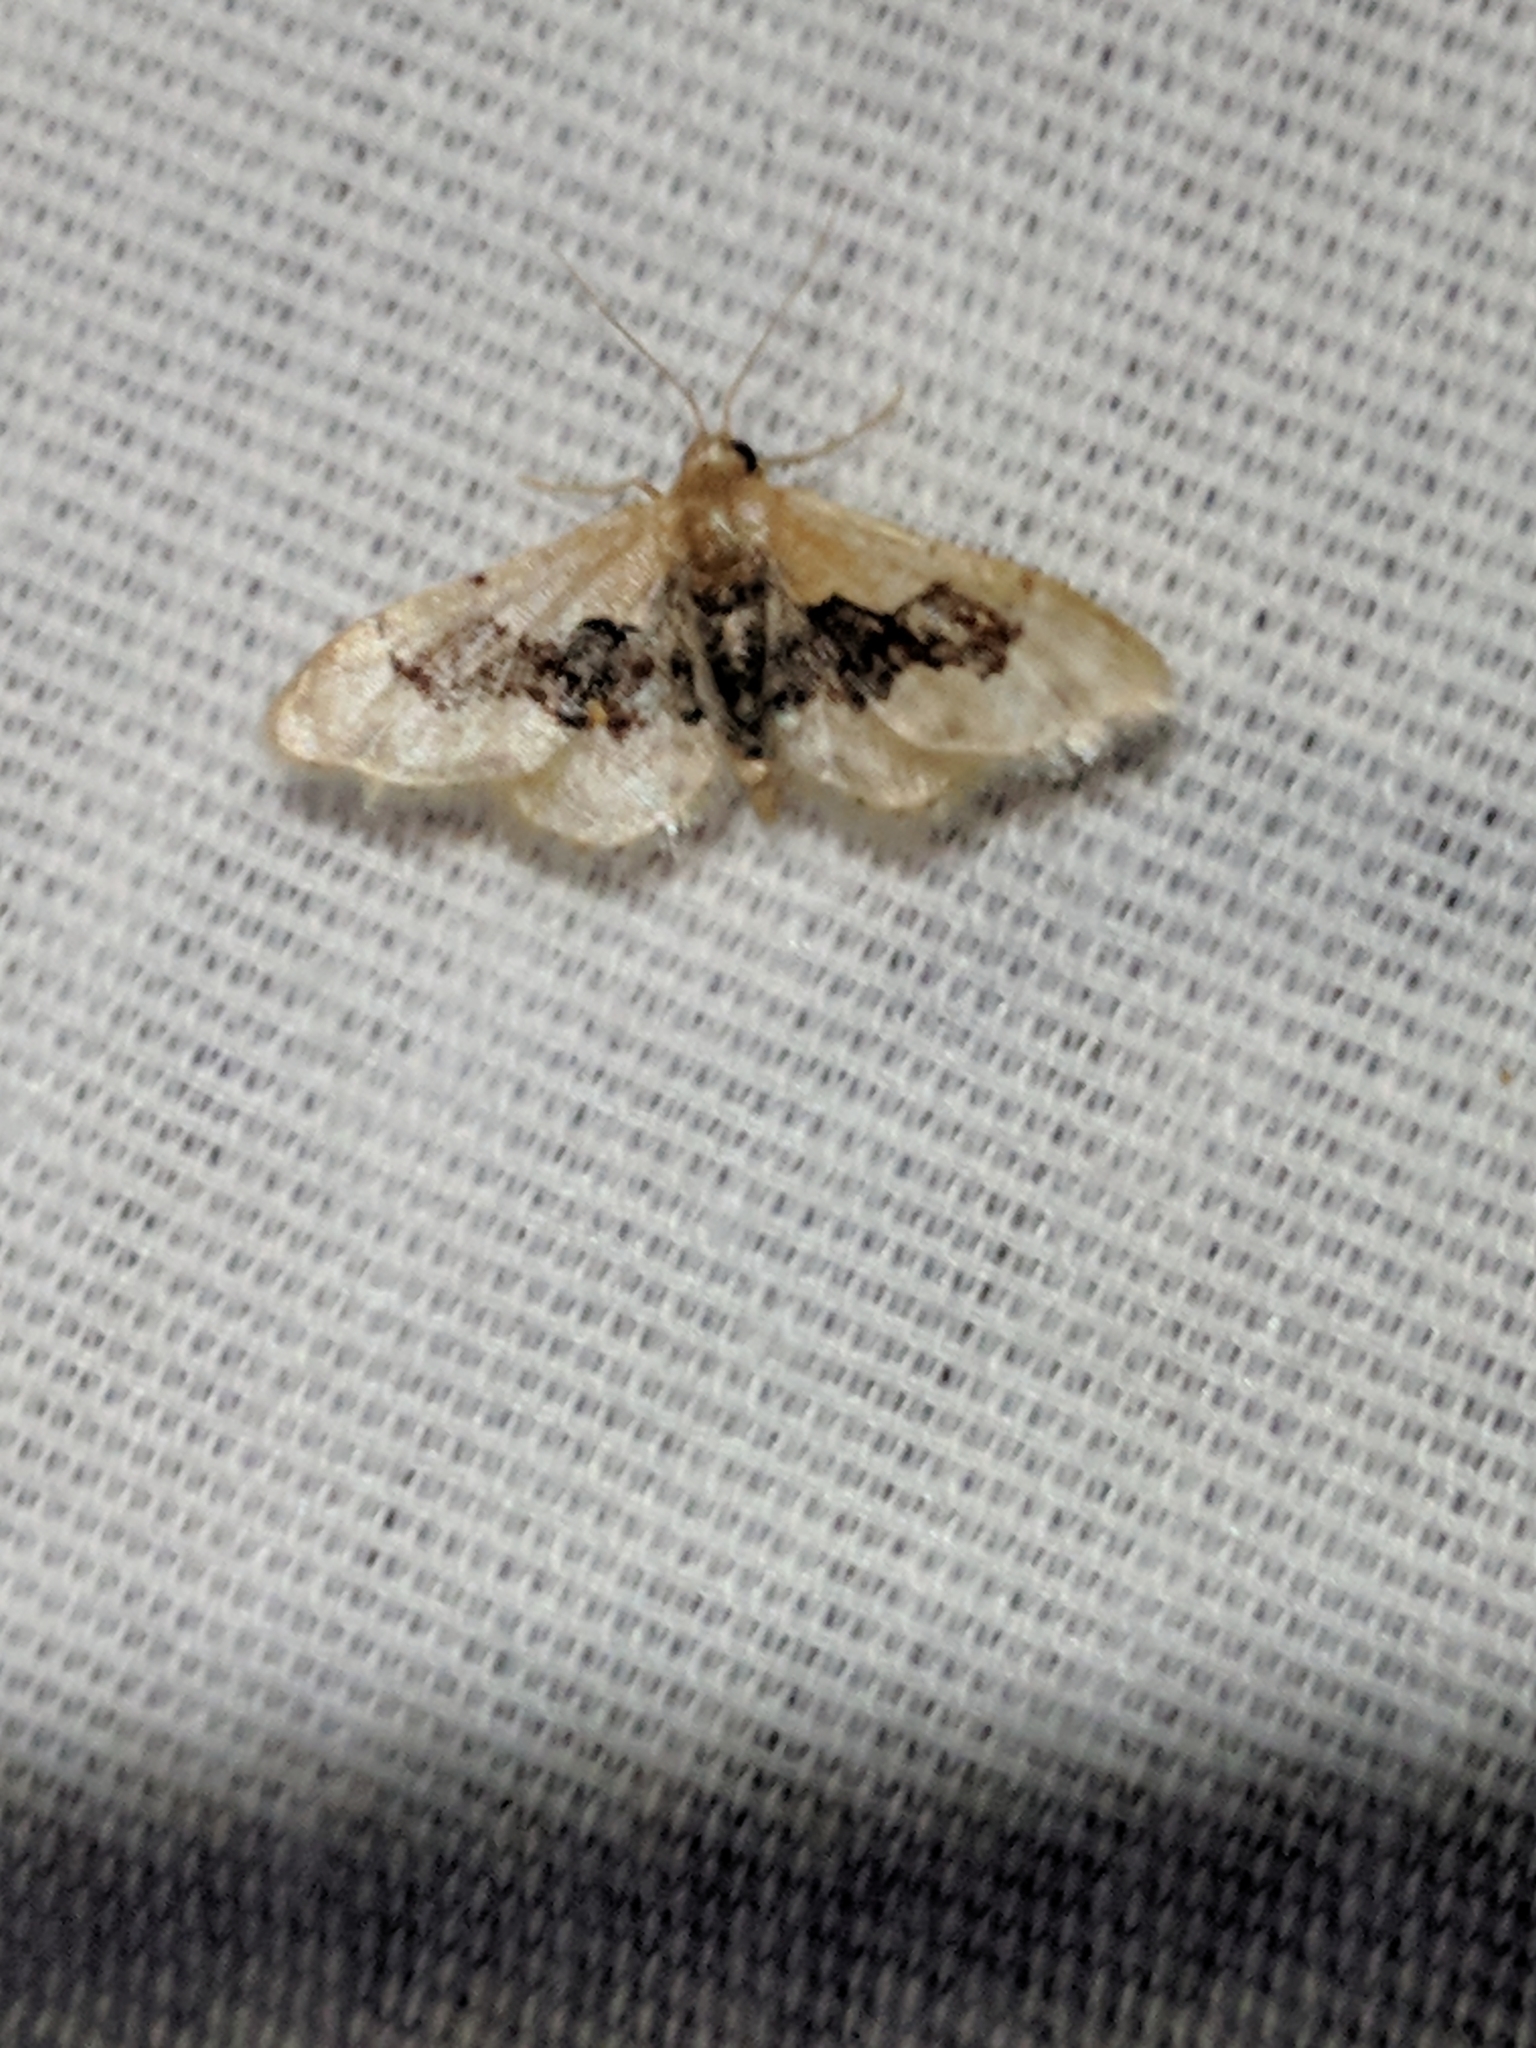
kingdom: Animalia
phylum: Arthropoda
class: Insecta
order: Lepidoptera
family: Geometridae
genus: Idaea
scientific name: Idaea gemmata
